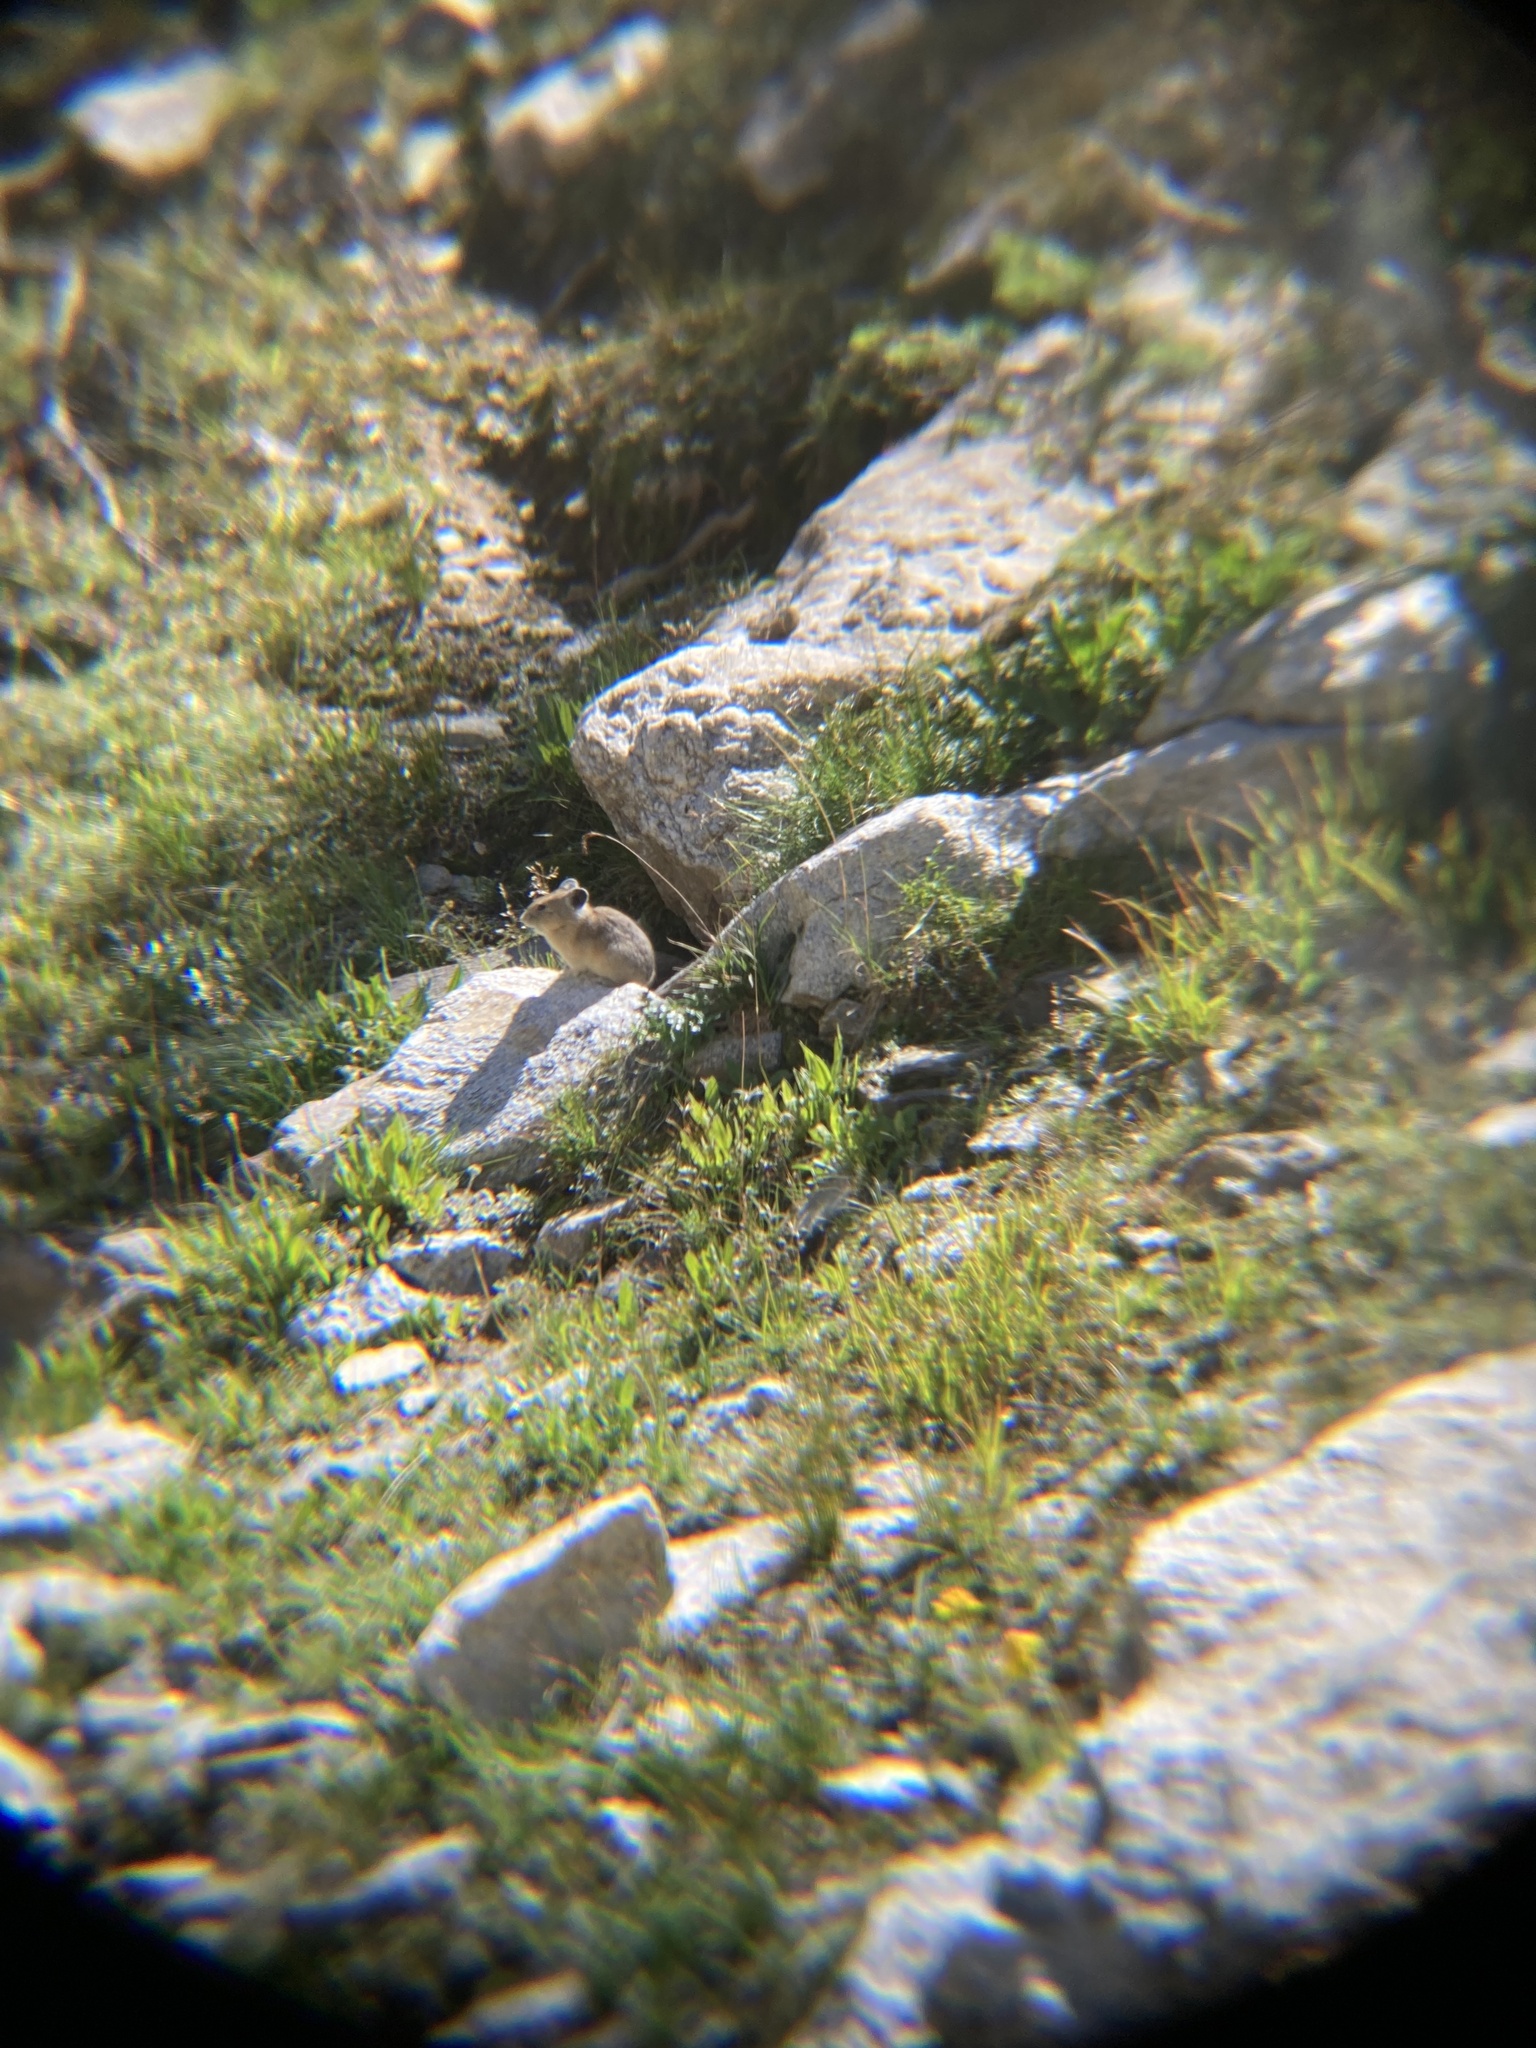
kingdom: Animalia
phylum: Chordata
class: Mammalia
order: Lagomorpha
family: Ochotonidae
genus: Ochotona
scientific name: Ochotona princeps
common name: American pika
